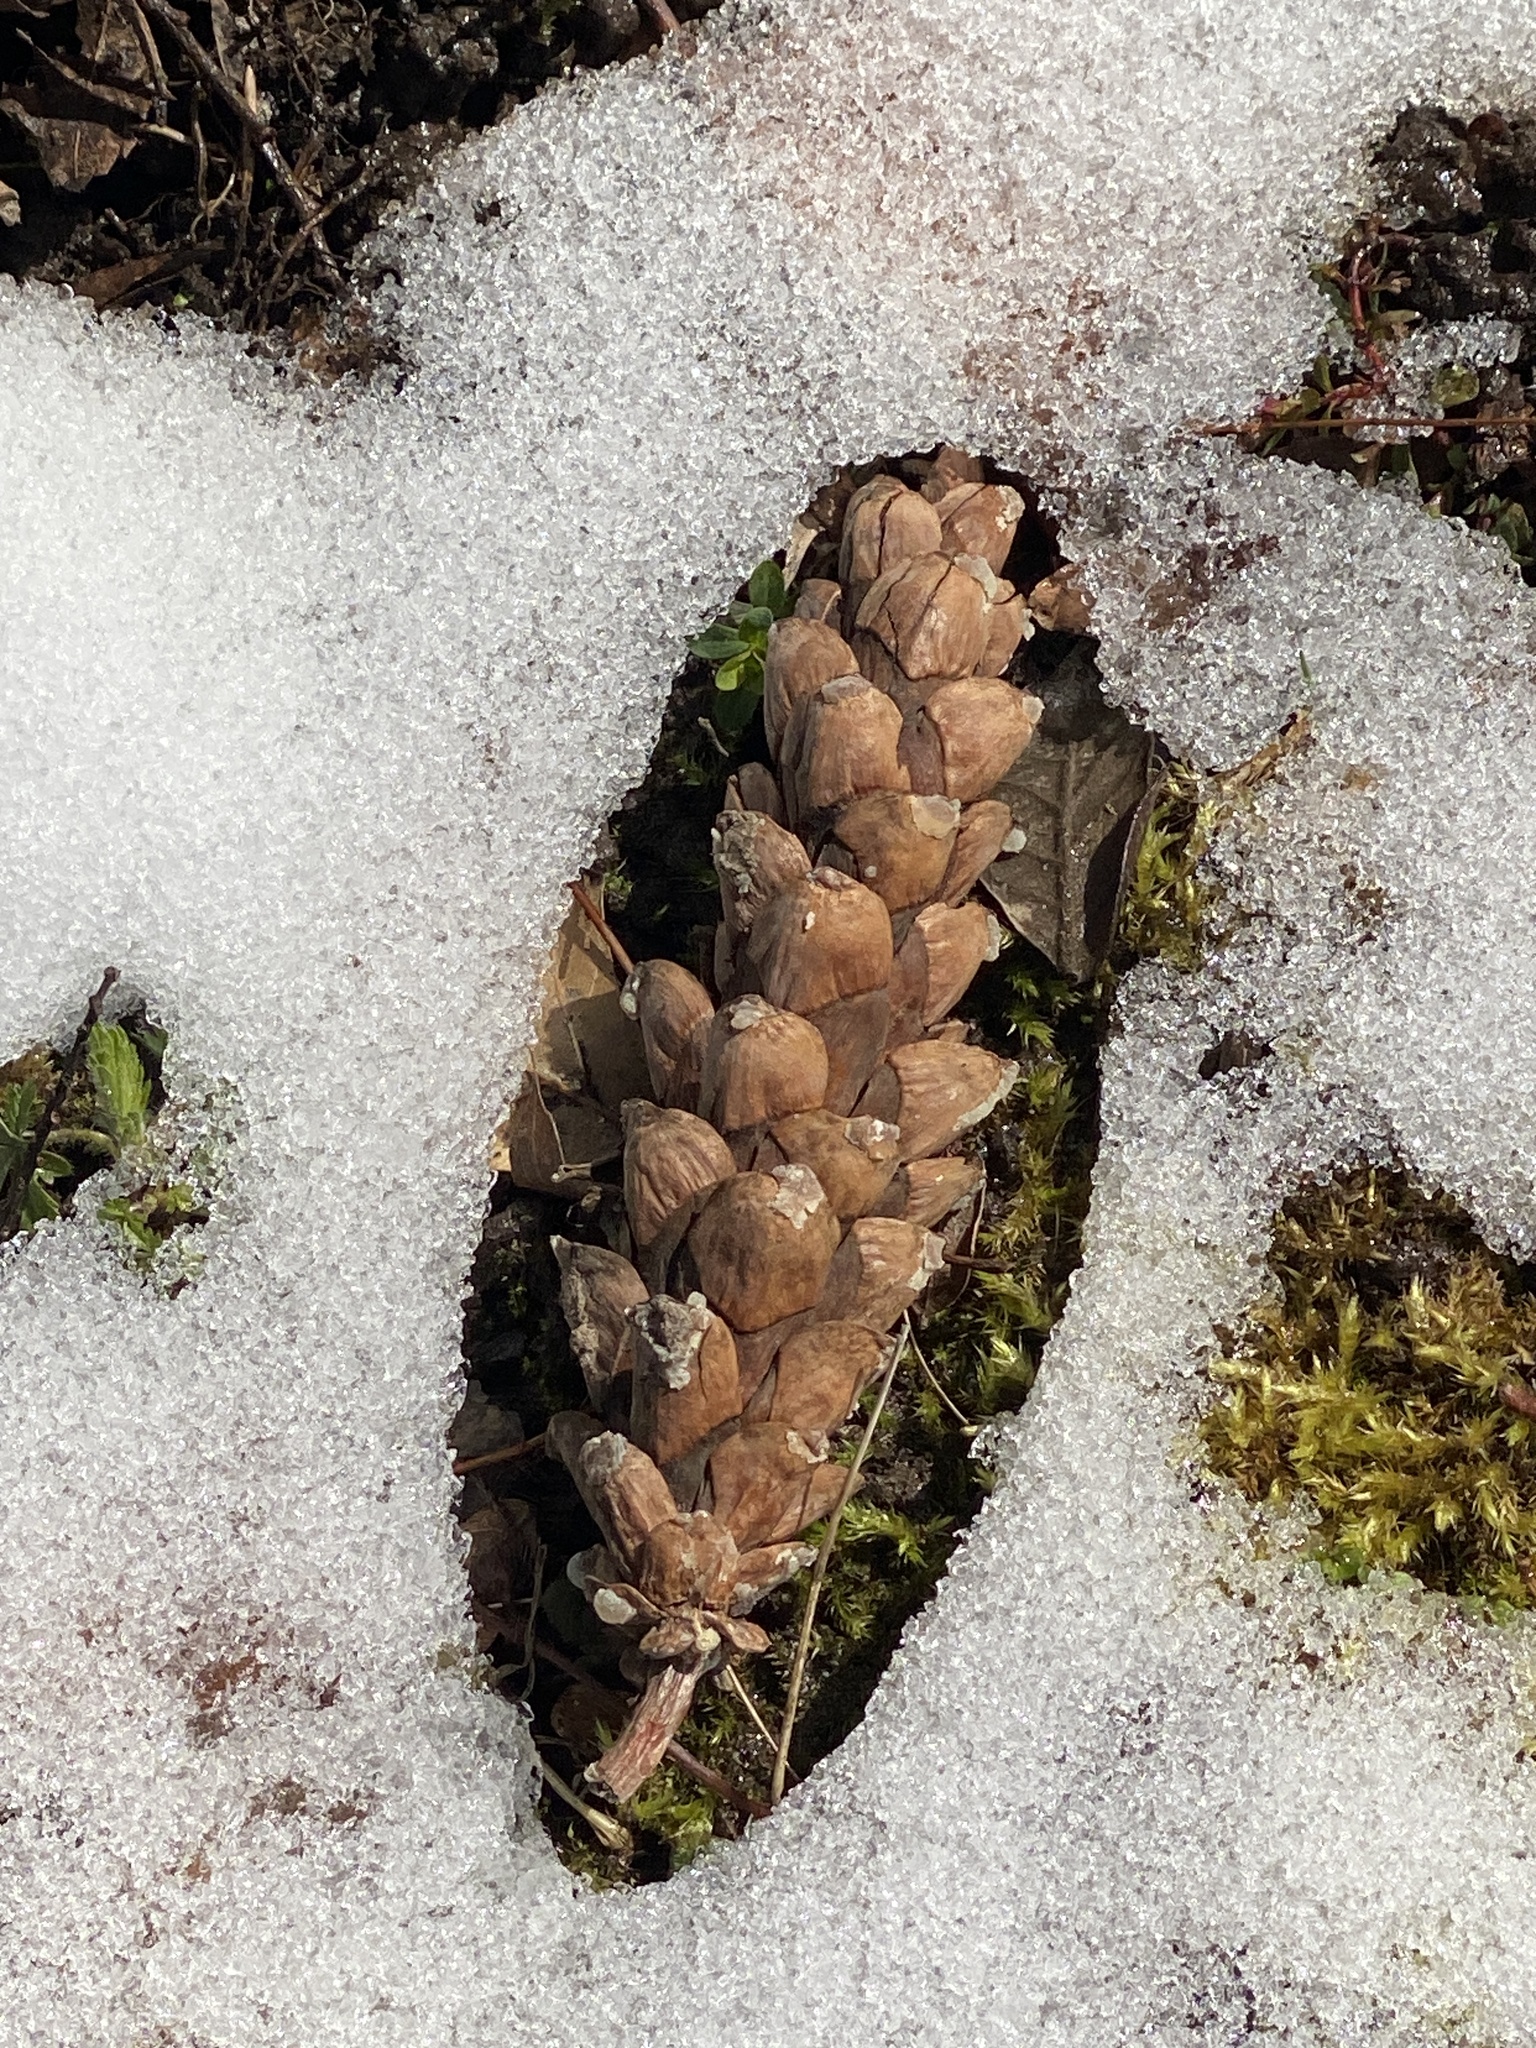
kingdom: Plantae
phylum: Tracheophyta
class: Pinopsida
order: Pinales
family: Pinaceae
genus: Pinus
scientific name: Pinus strobus
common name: Weymouth pine
